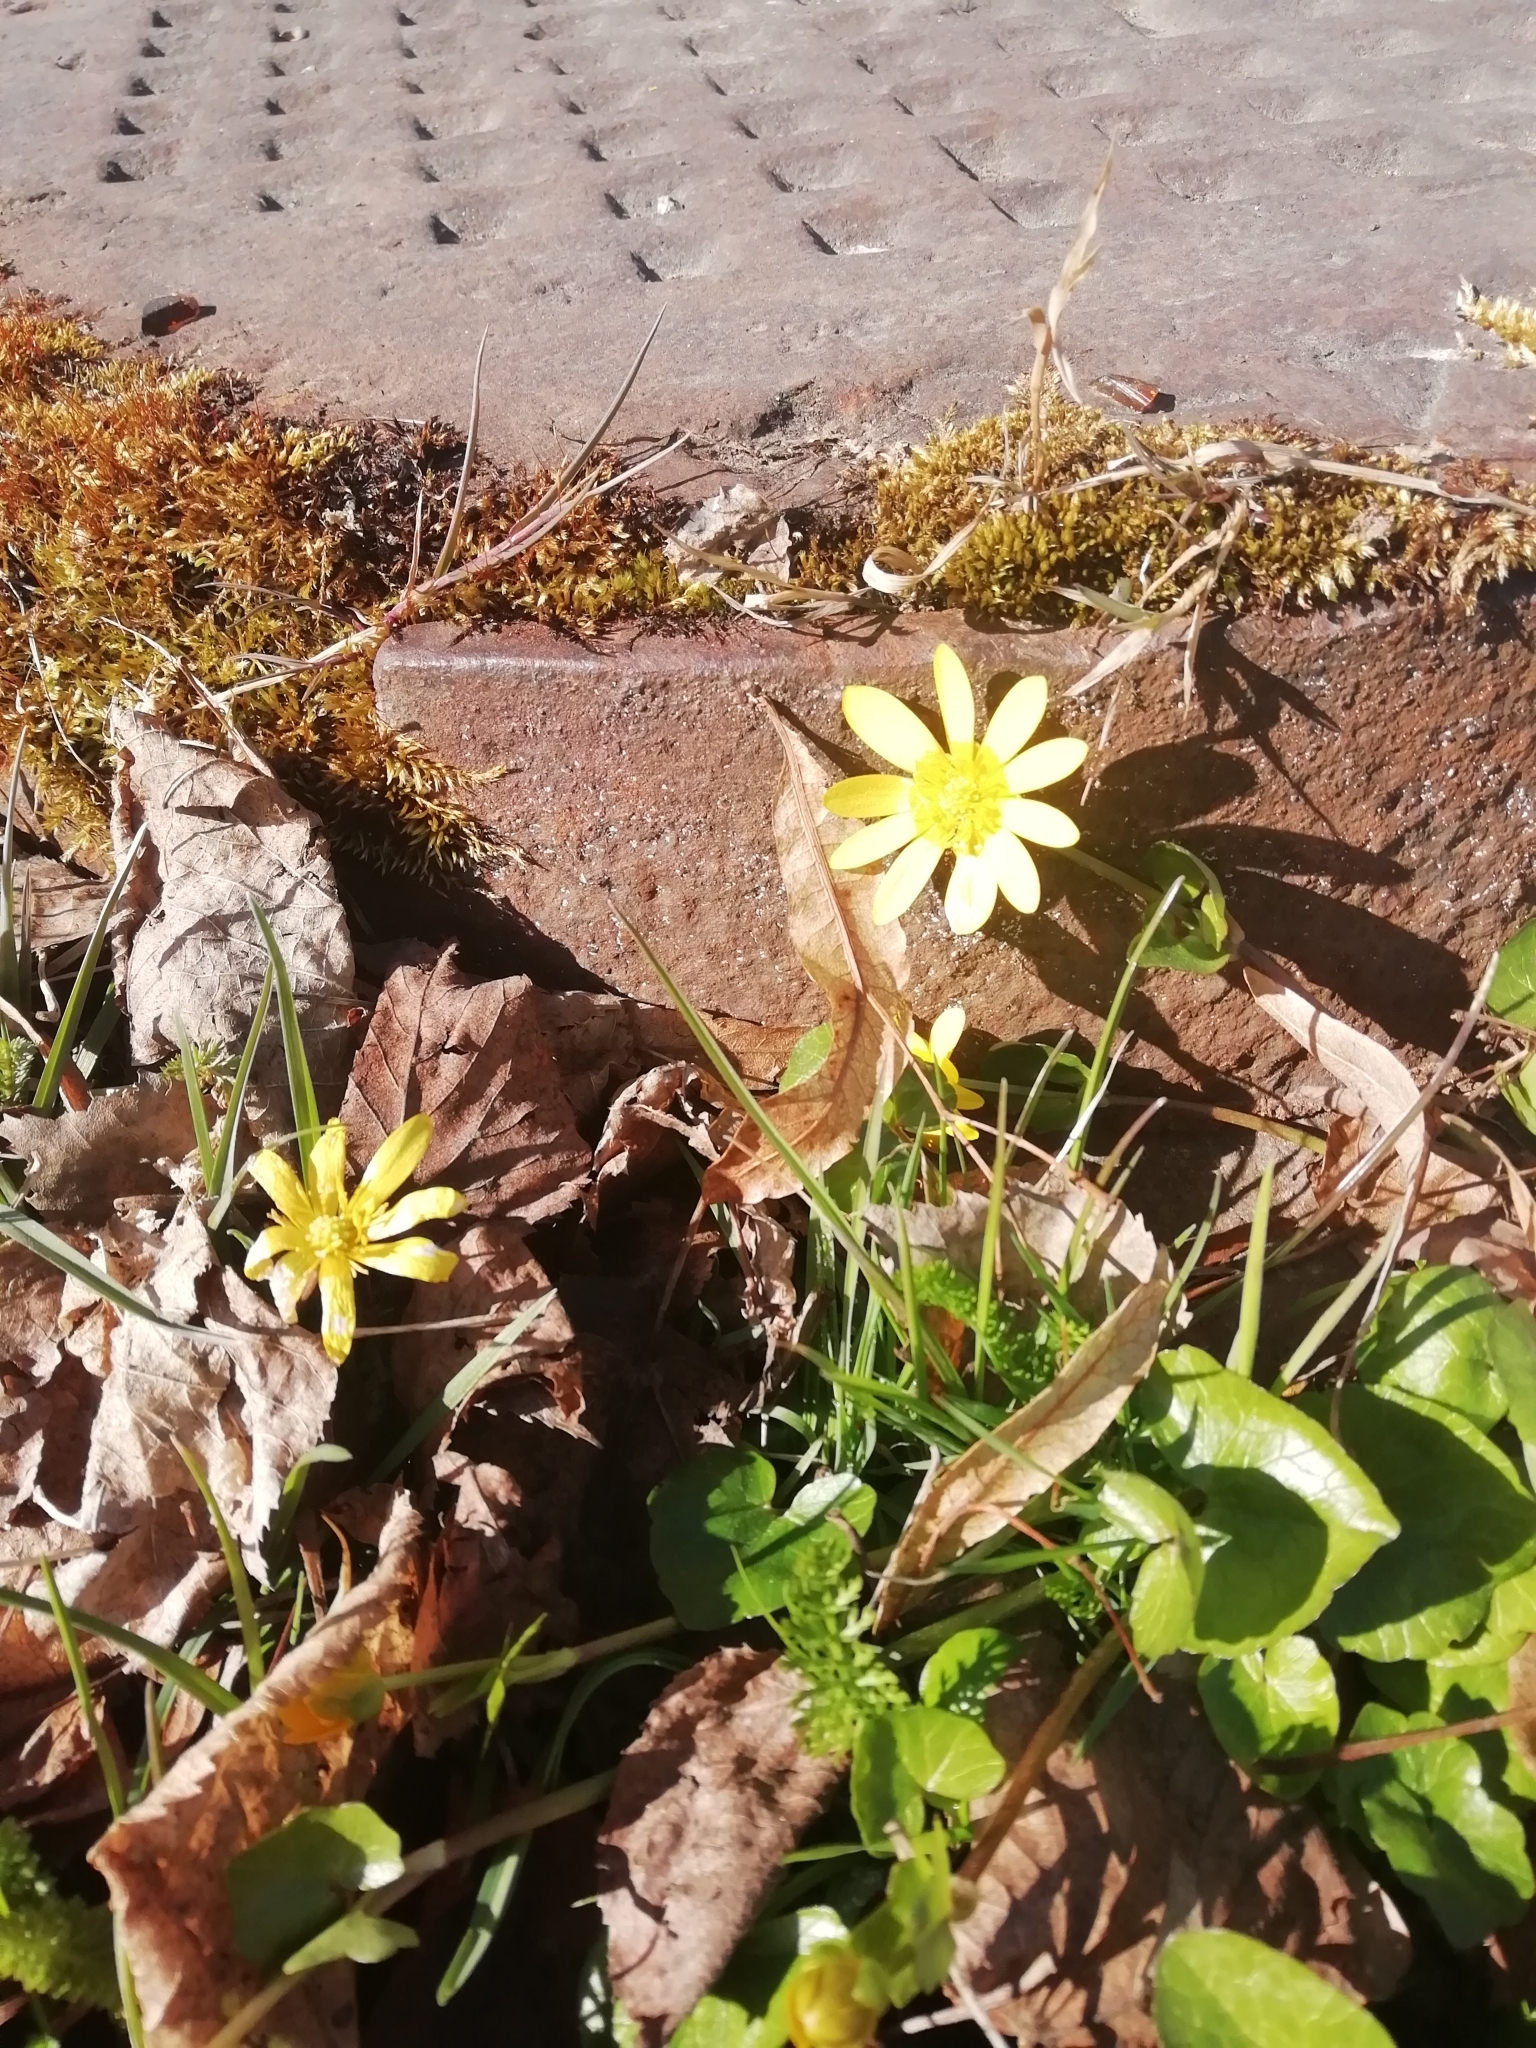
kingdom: Plantae
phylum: Tracheophyta
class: Magnoliopsida
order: Ranunculales
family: Ranunculaceae
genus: Ficaria
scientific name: Ficaria verna
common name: Lesser celandine
